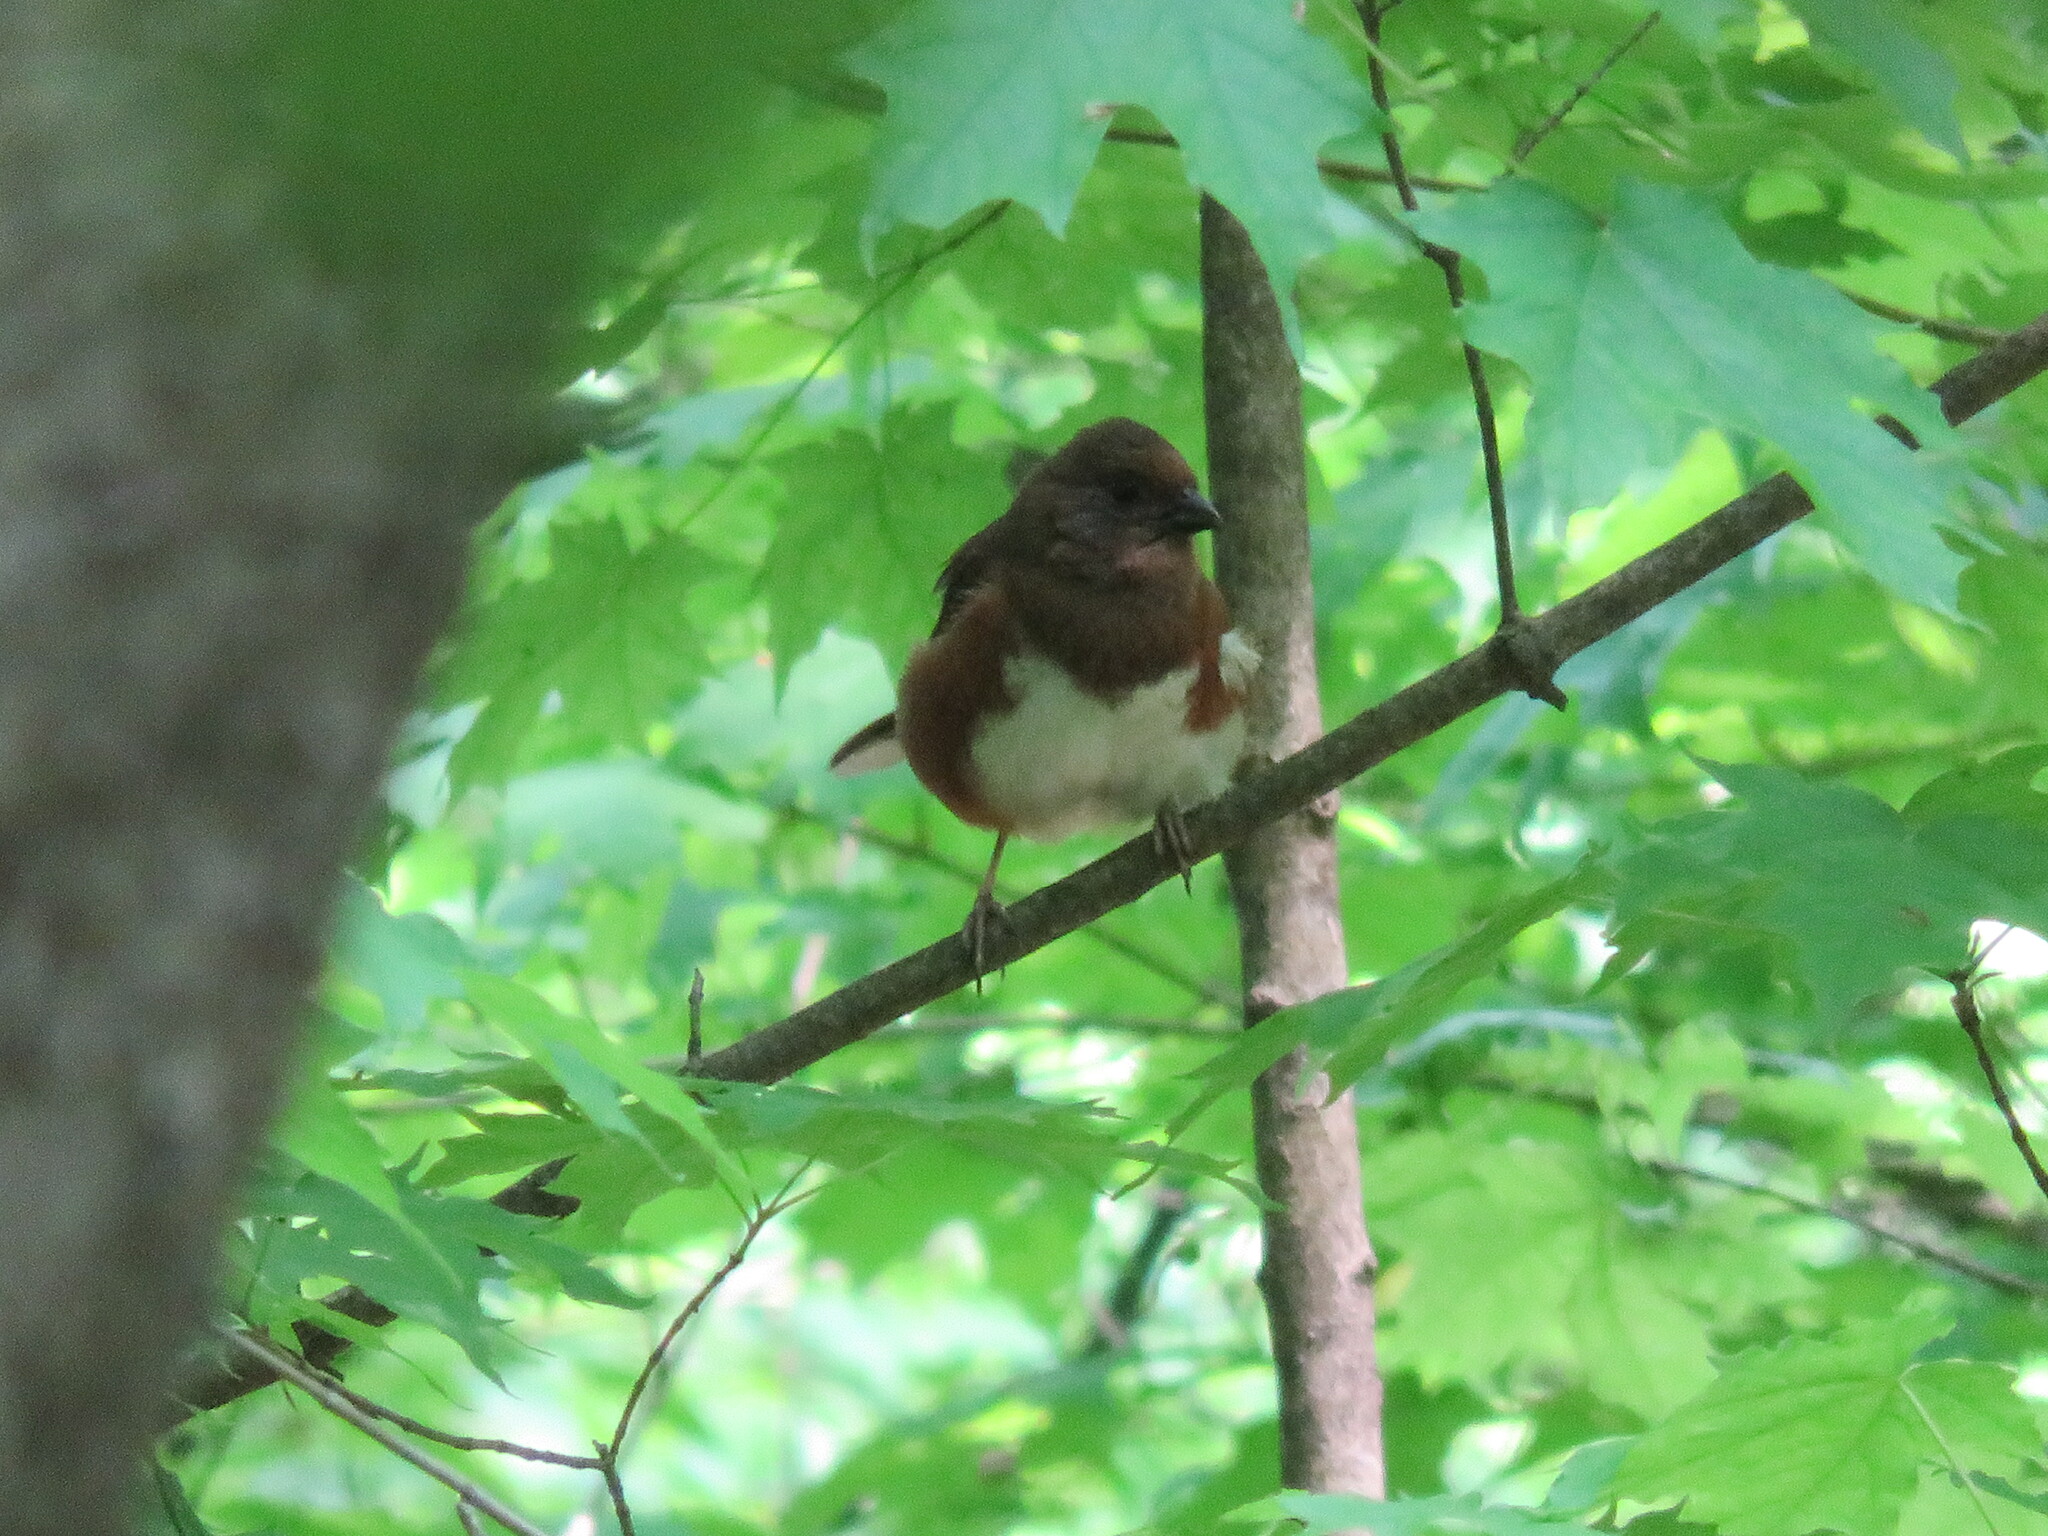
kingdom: Animalia
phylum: Chordata
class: Aves
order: Passeriformes
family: Passerellidae
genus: Pipilo
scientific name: Pipilo erythrophthalmus
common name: Eastern towhee
